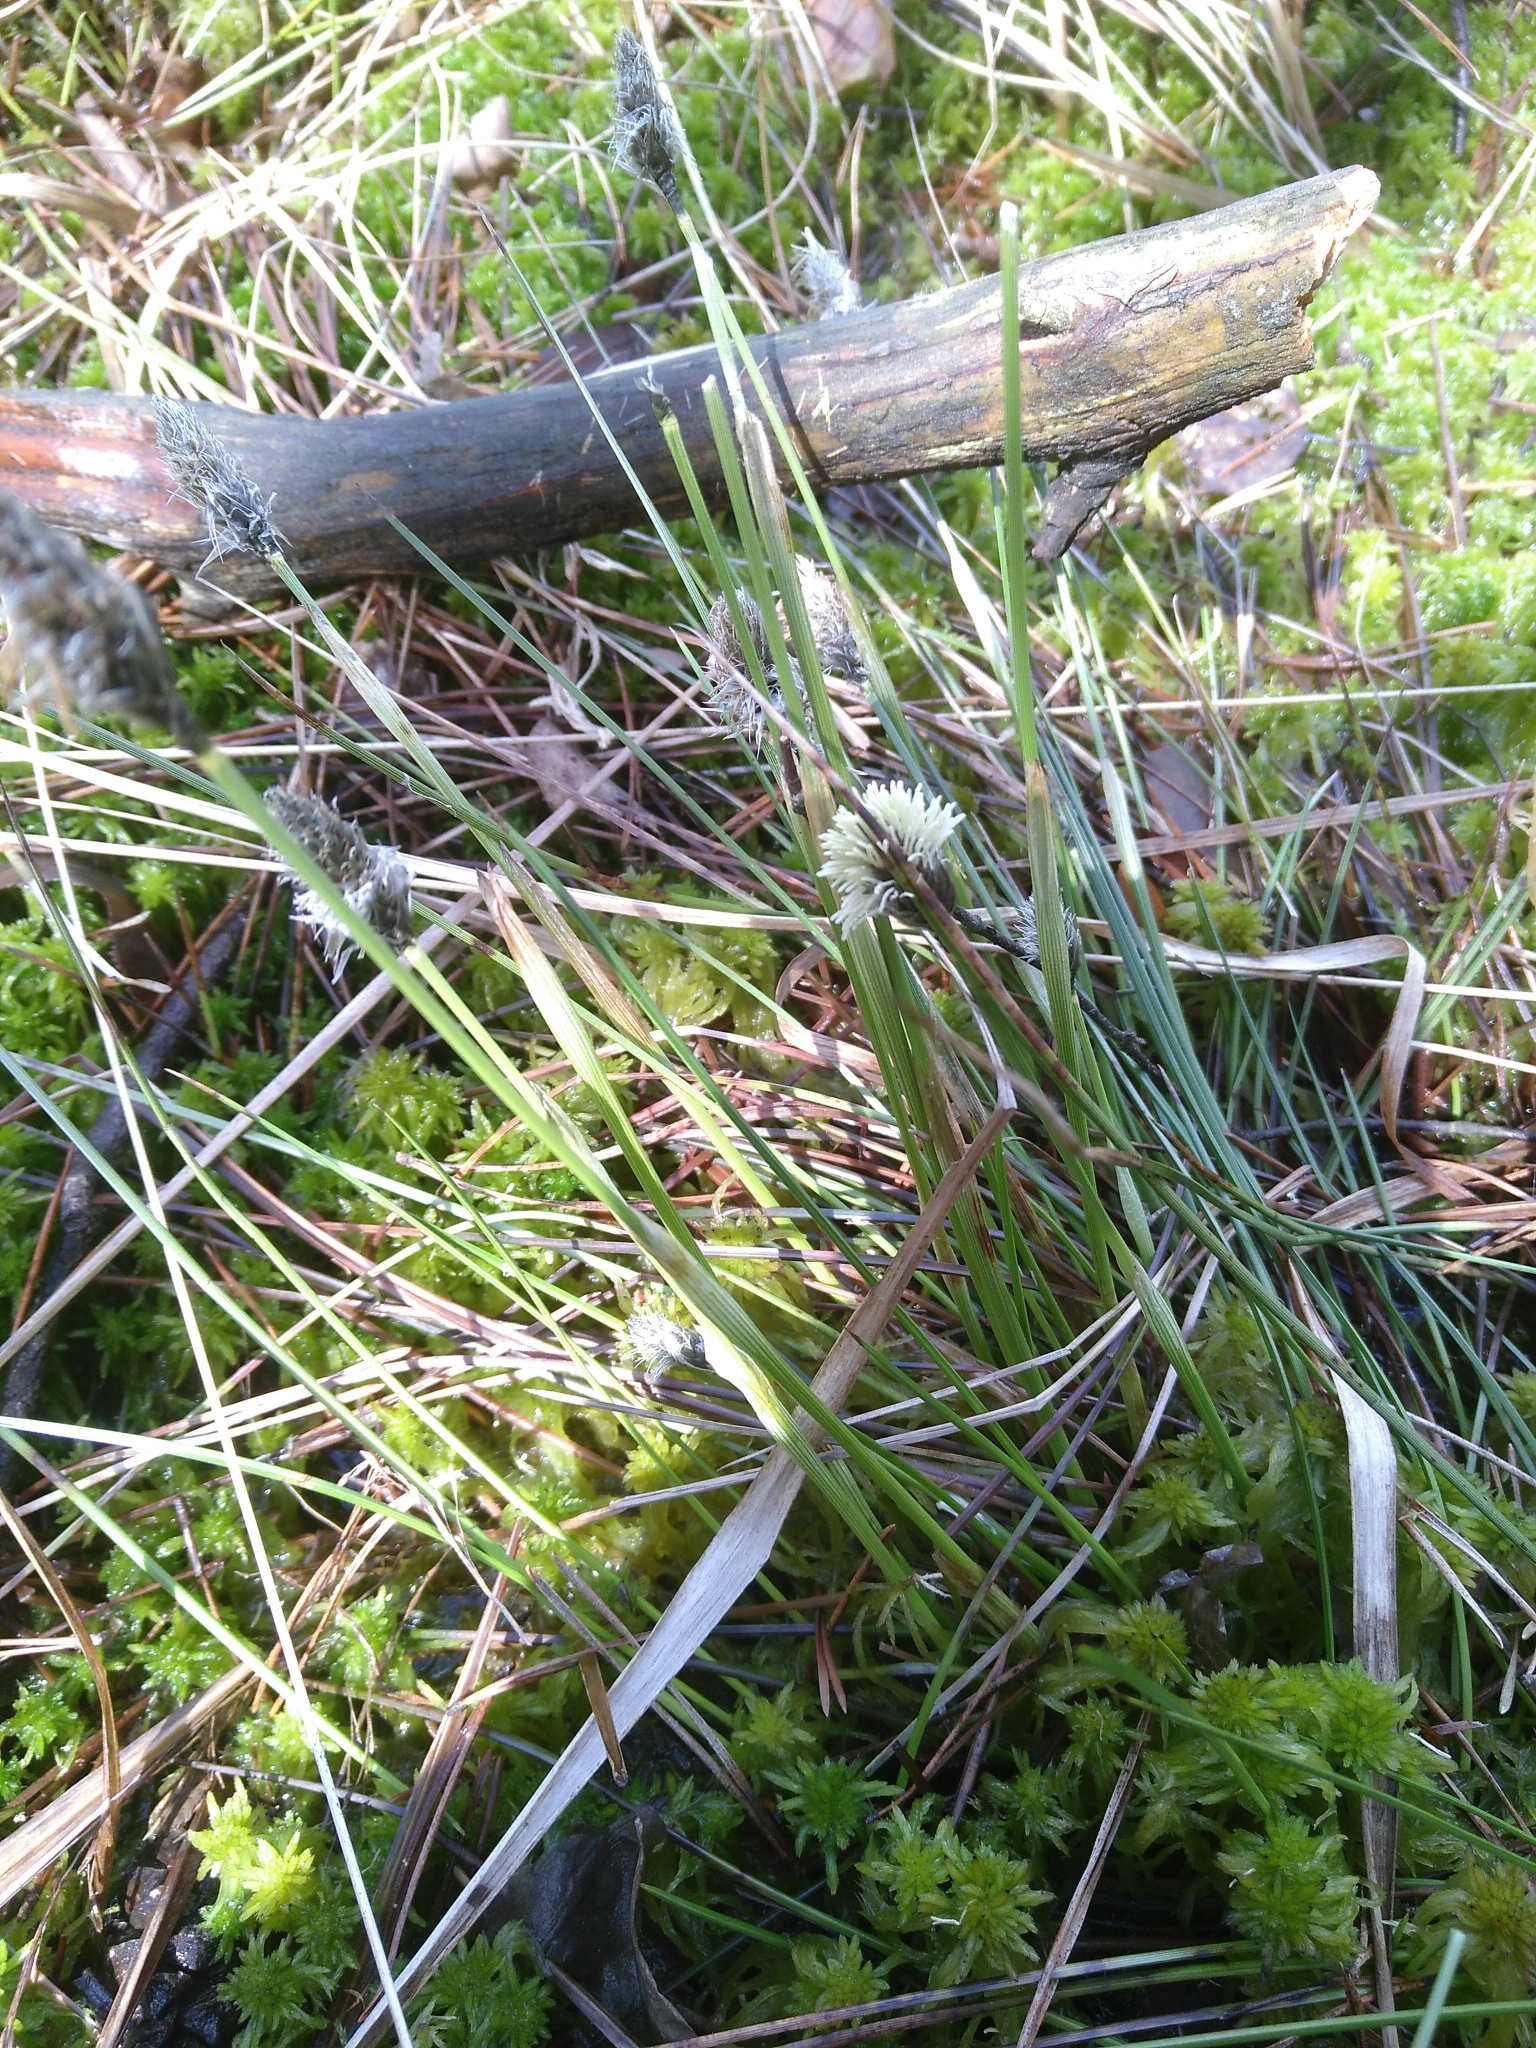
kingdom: Plantae
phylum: Tracheophyta
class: Liliopsida
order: Poales
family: Cyperaceae
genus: Eriophorum
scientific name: Eriophorum vaginatum
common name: Hare's-tail cottongrass
